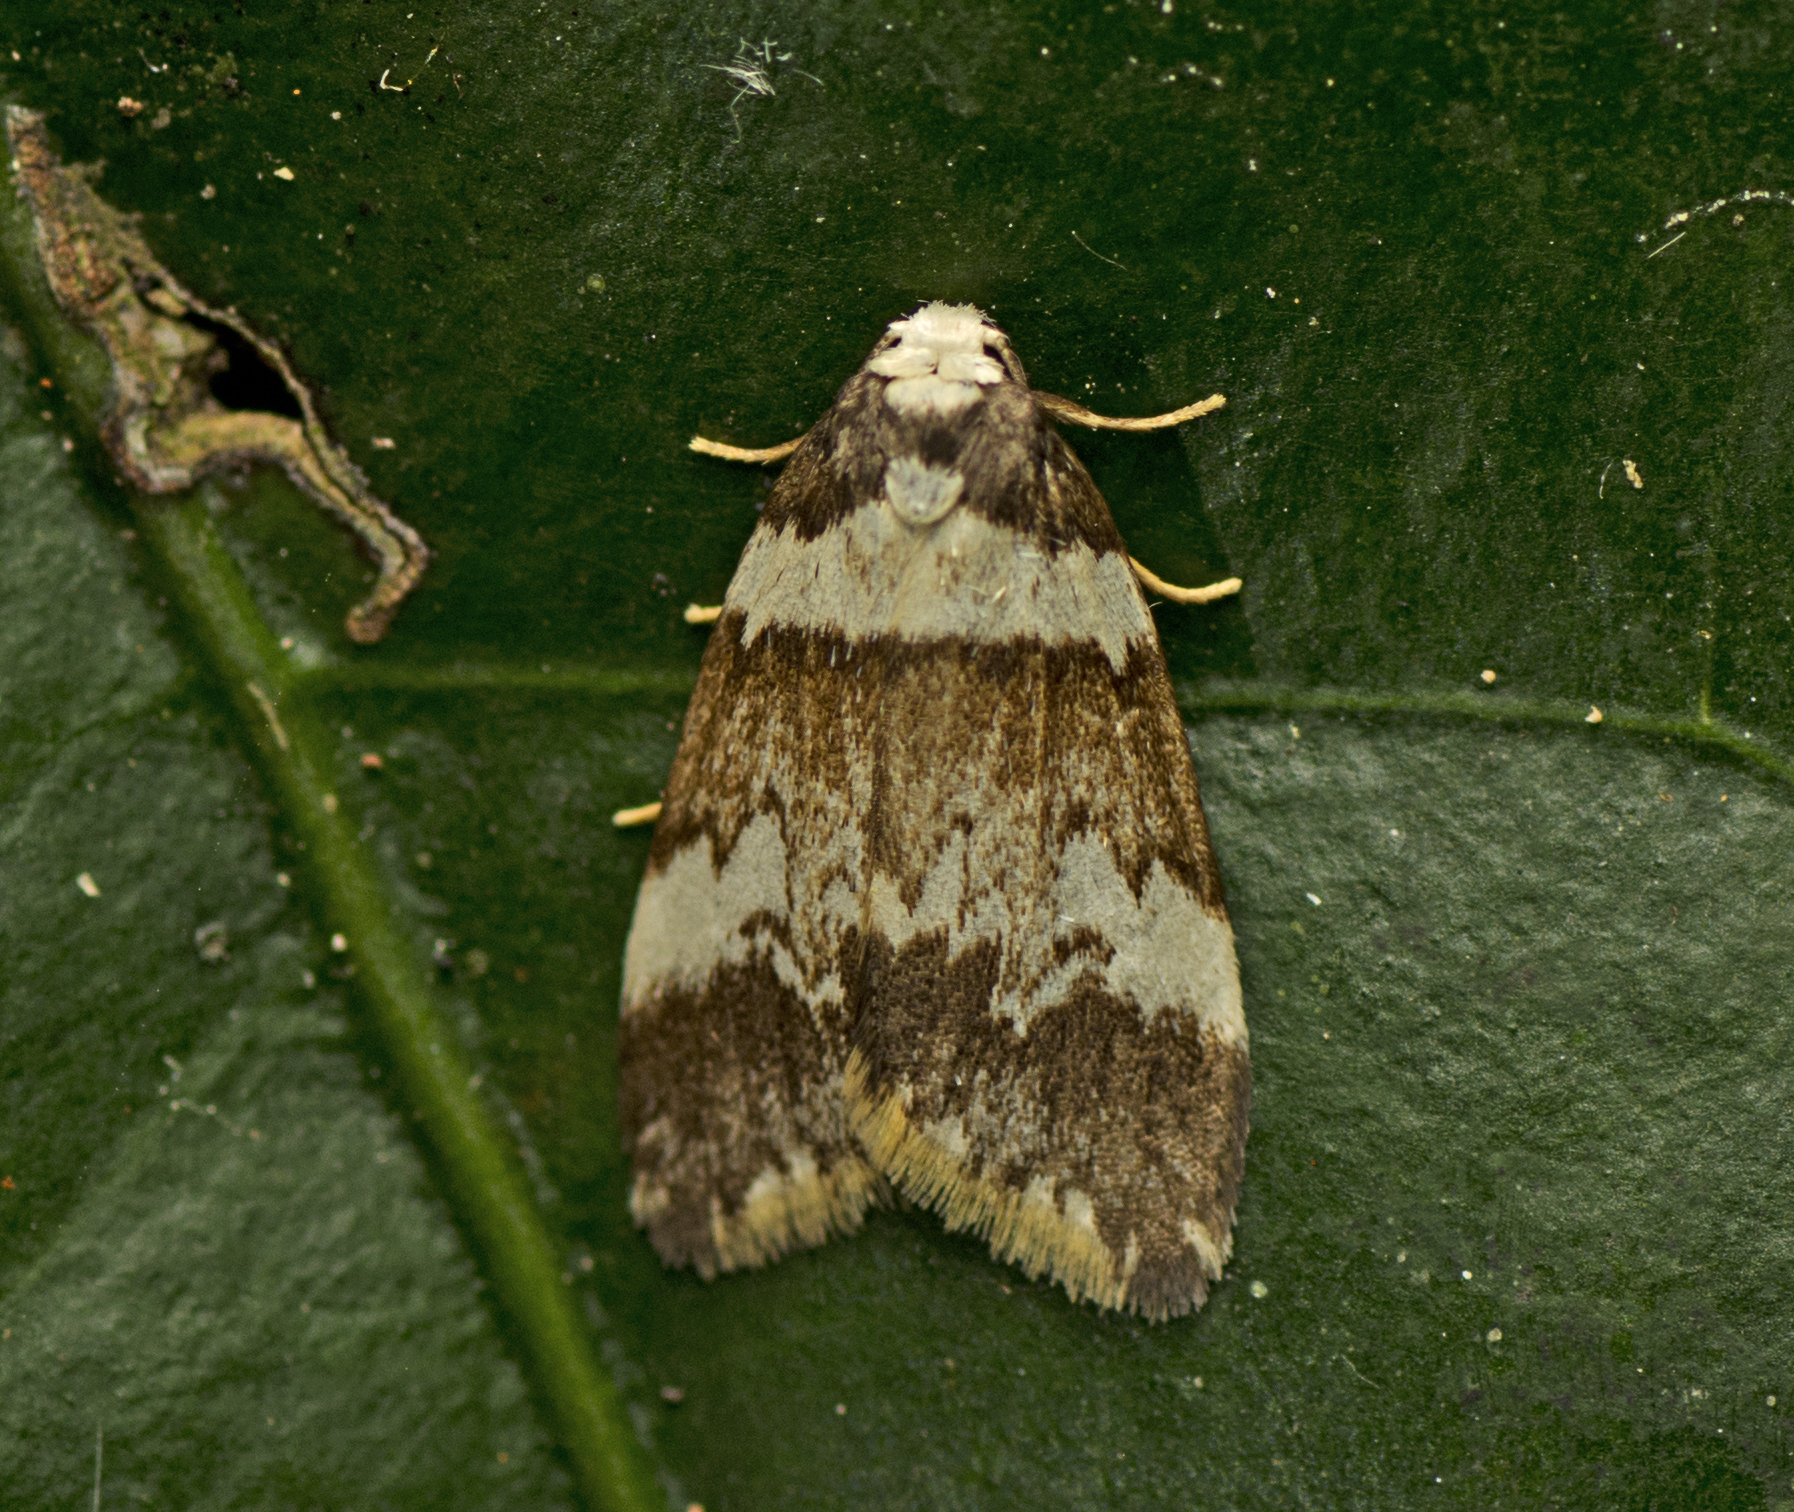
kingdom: Animalia
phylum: Arthropoda
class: Insecta
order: Lepidoptera
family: Erebidae
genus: Halone
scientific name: Halone sejuncta
